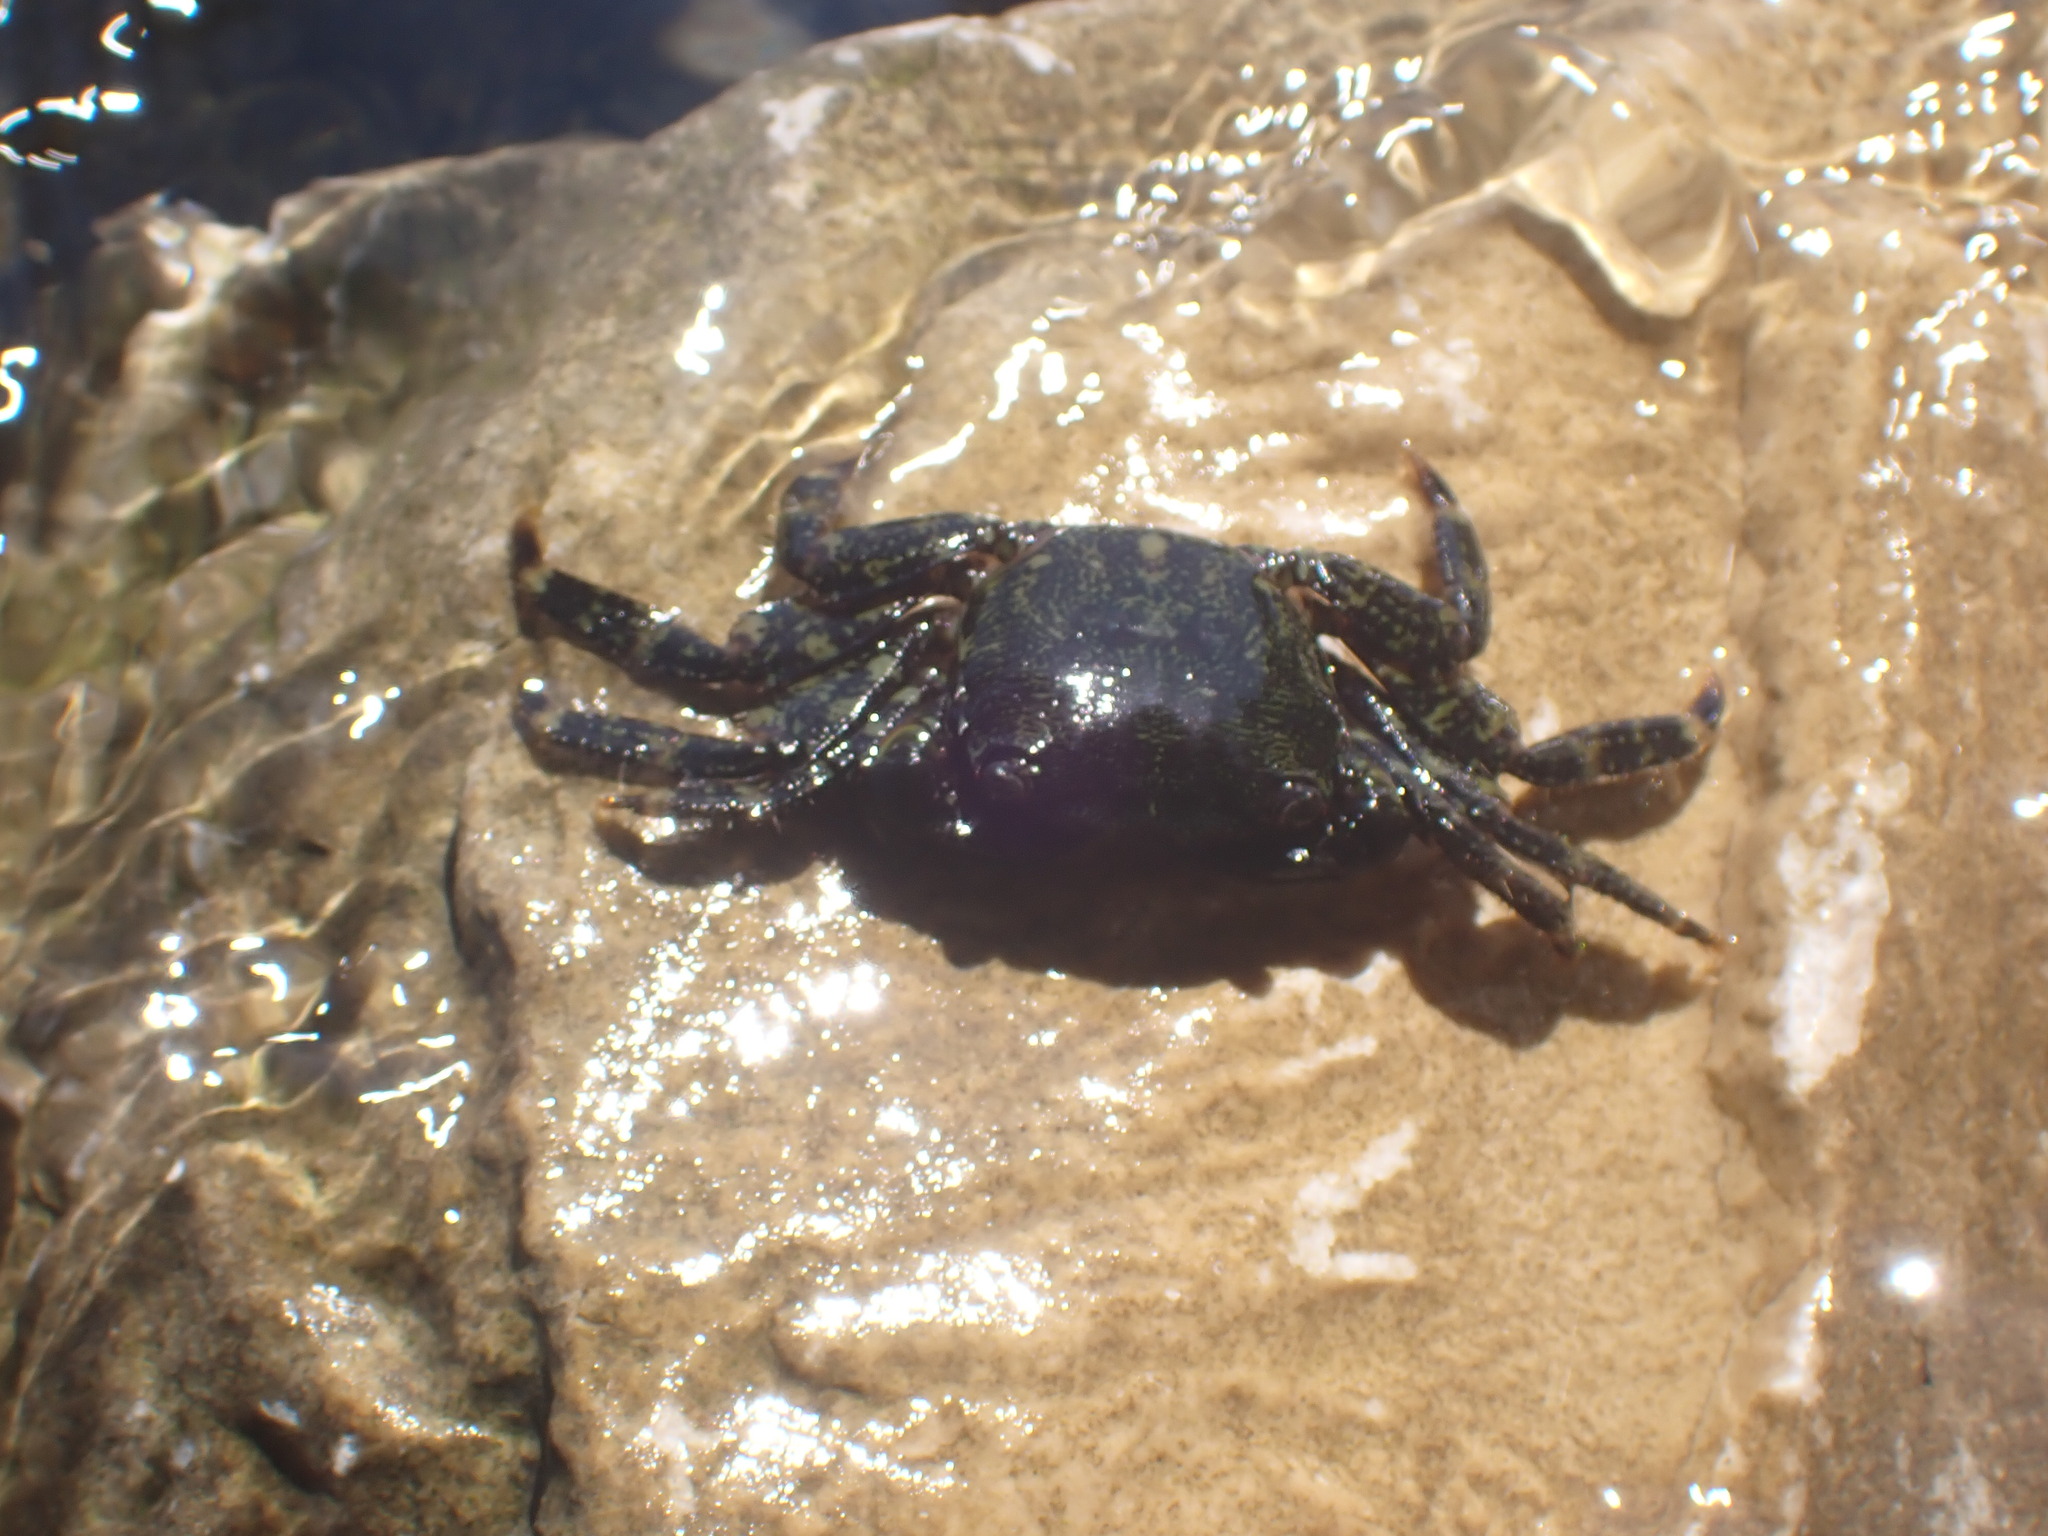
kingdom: Animalia
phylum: Arthropoda
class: Malacostraca
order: Decapoda
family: Grapsidae
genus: Pachygrapsus
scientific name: Pachygrapsus marmoratus
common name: Marbled rock crab
